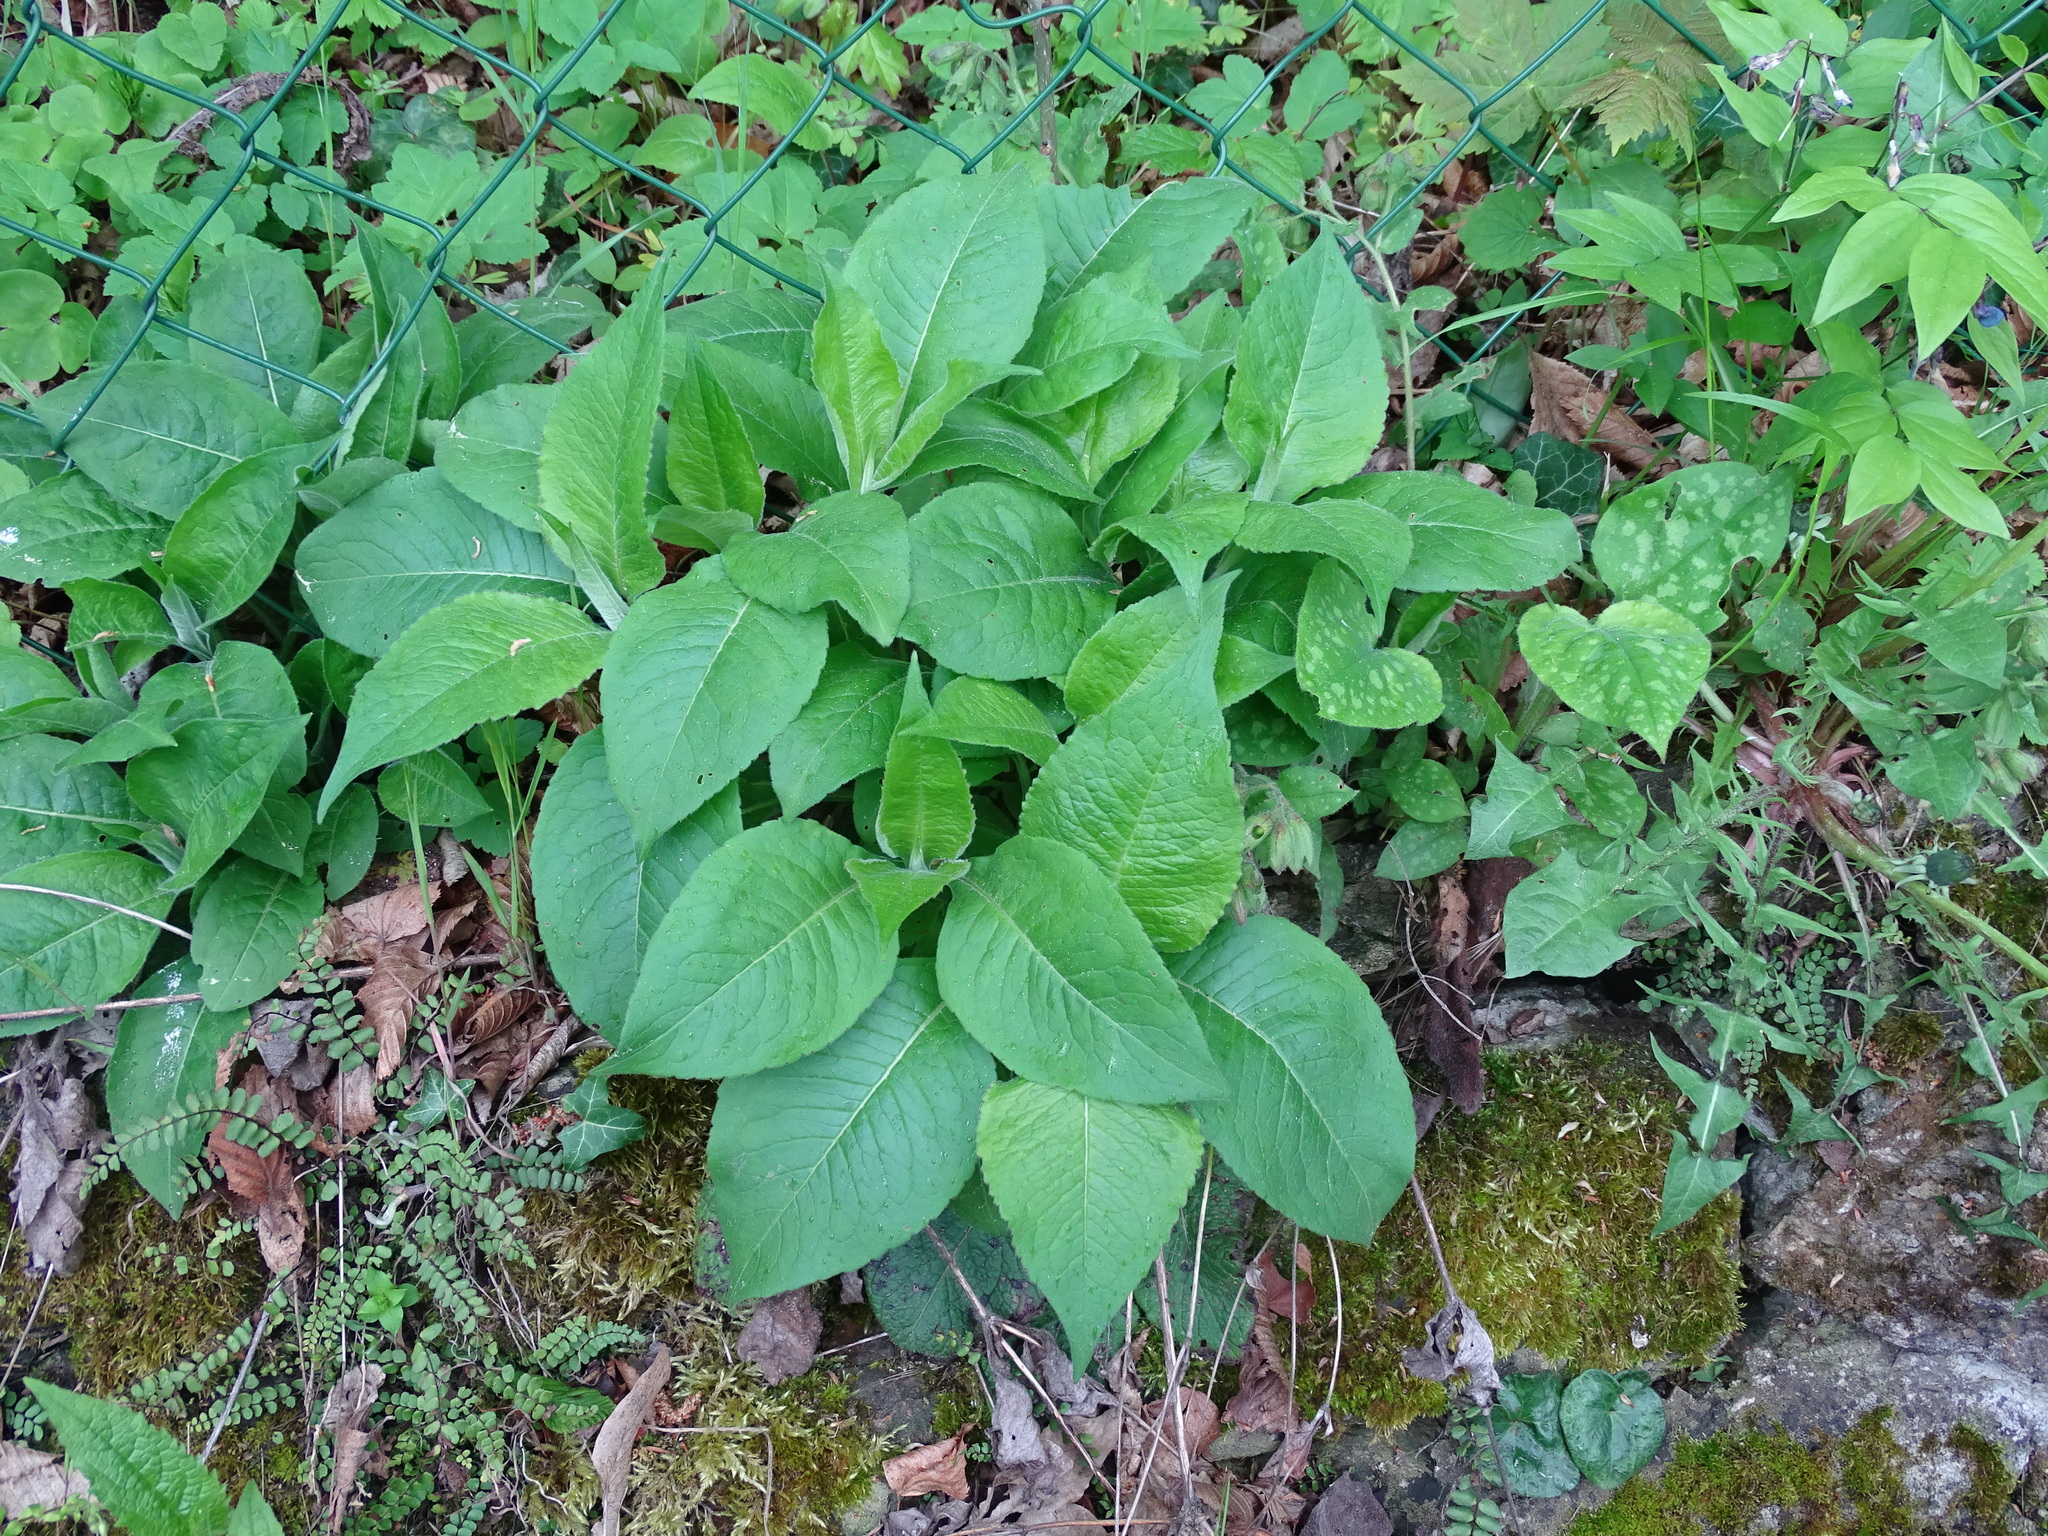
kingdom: Plantae
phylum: Tracheophyta
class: Magnoliopsida
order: Dipsacales
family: Caprifoliaceae
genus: Knautia
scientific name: Knautia drymeia
